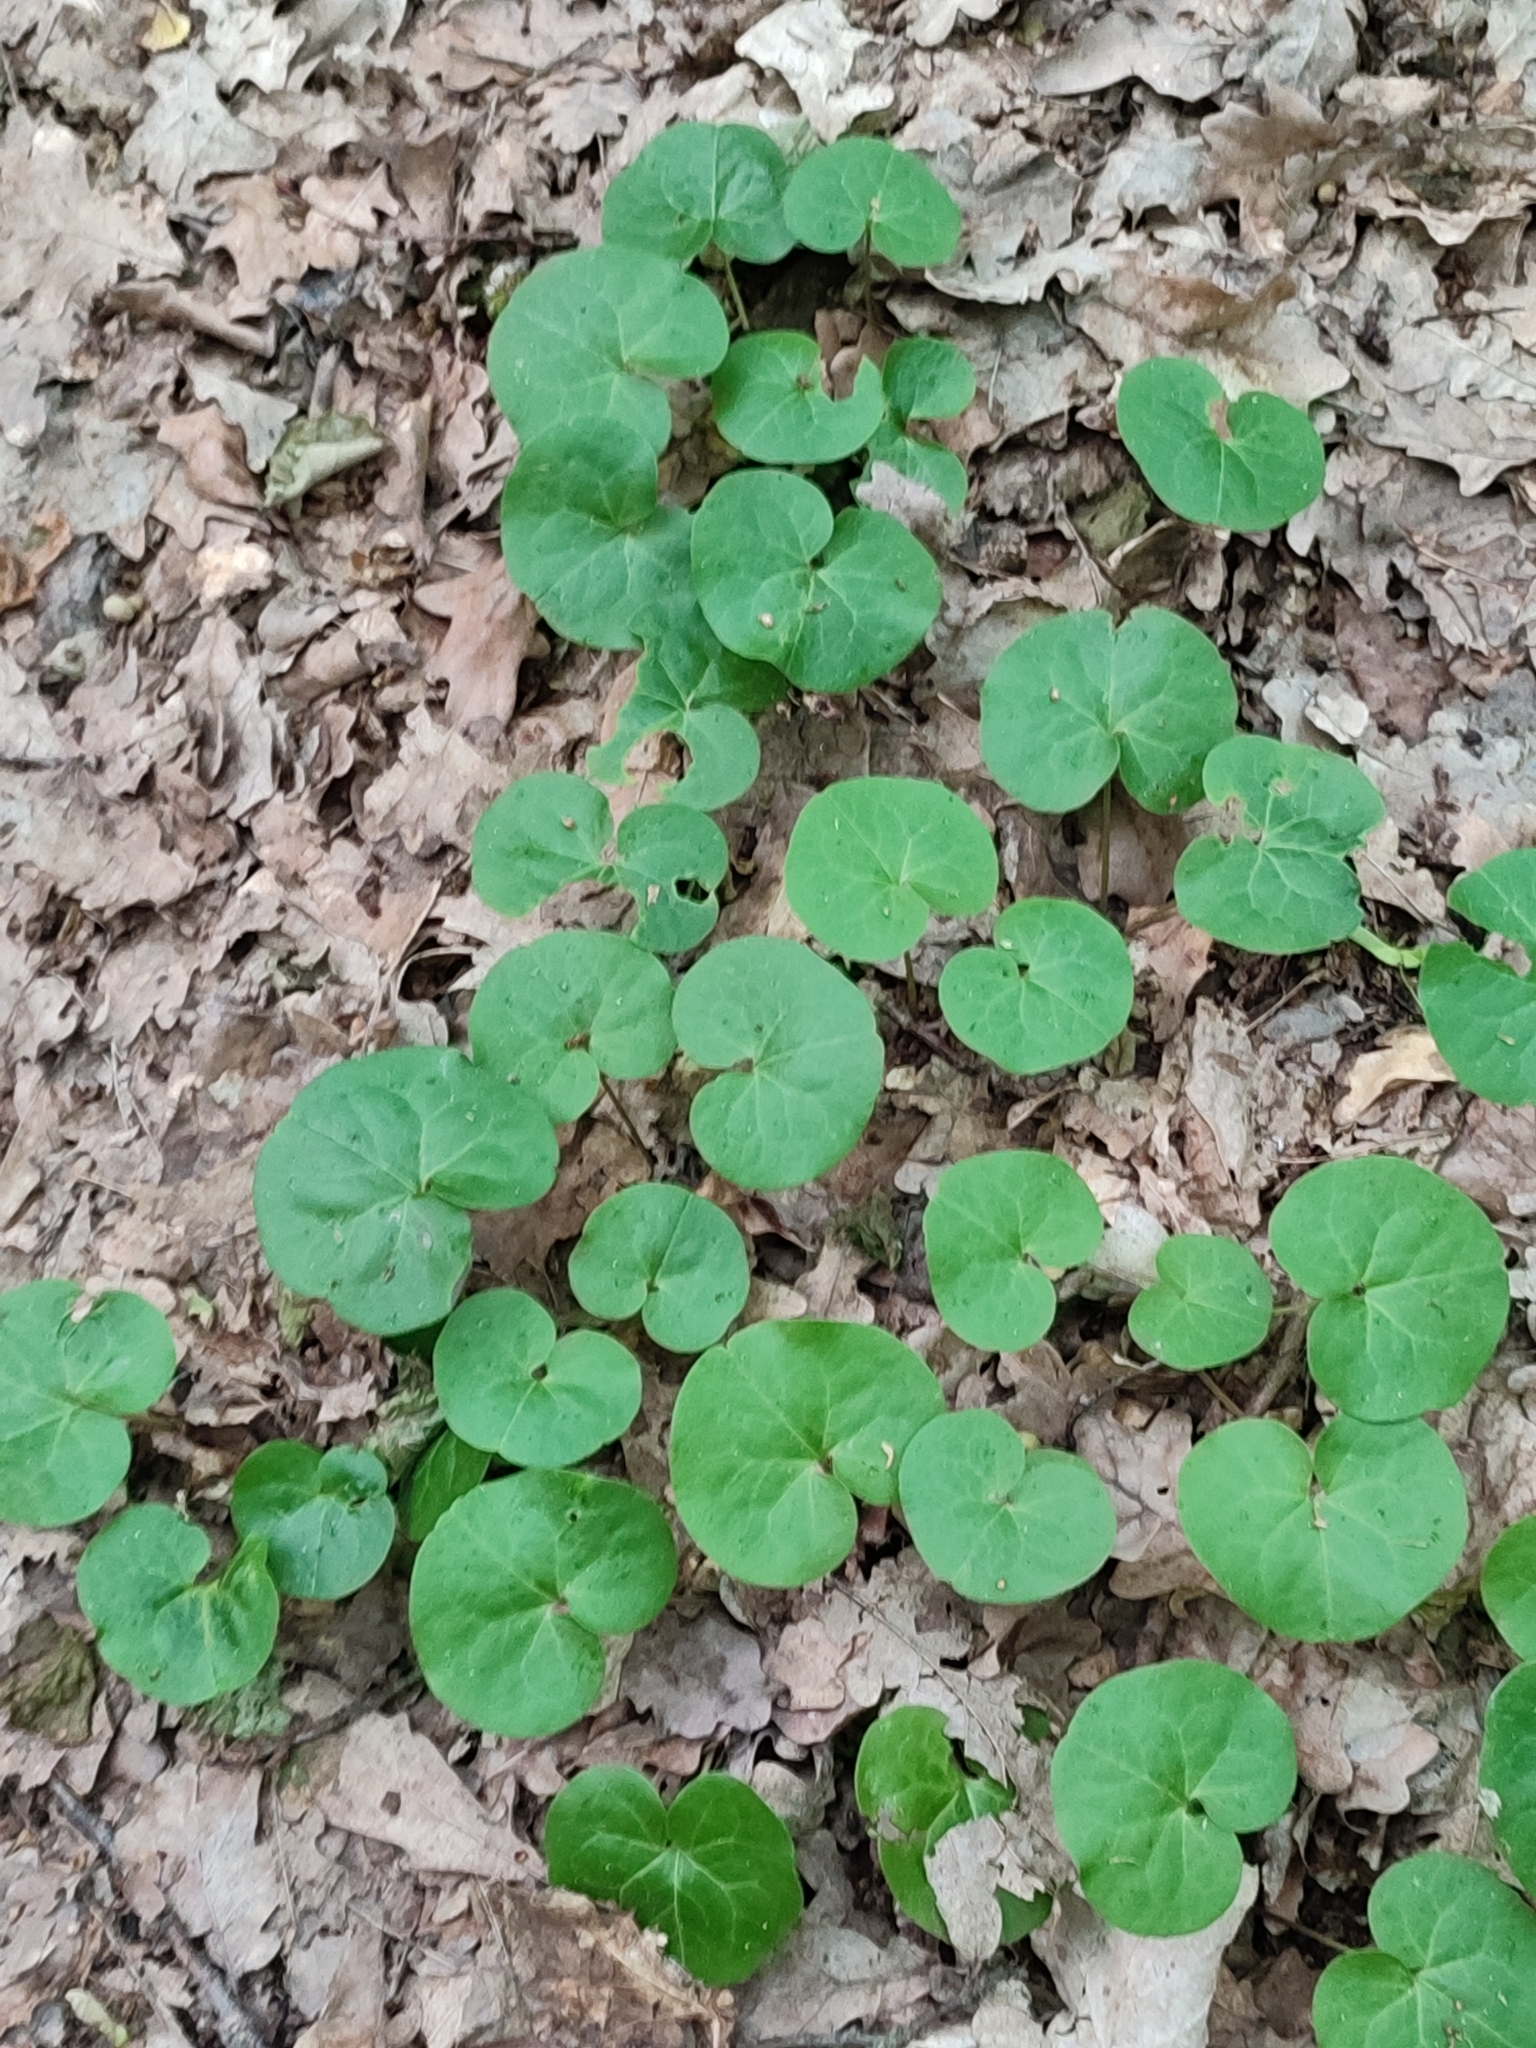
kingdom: Plantae
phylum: Tracheophyta
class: Magnoliopsida
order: Piperales
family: Aristolochiaceae
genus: Asarum
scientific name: Asarum europaeum
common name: Asarabacca
